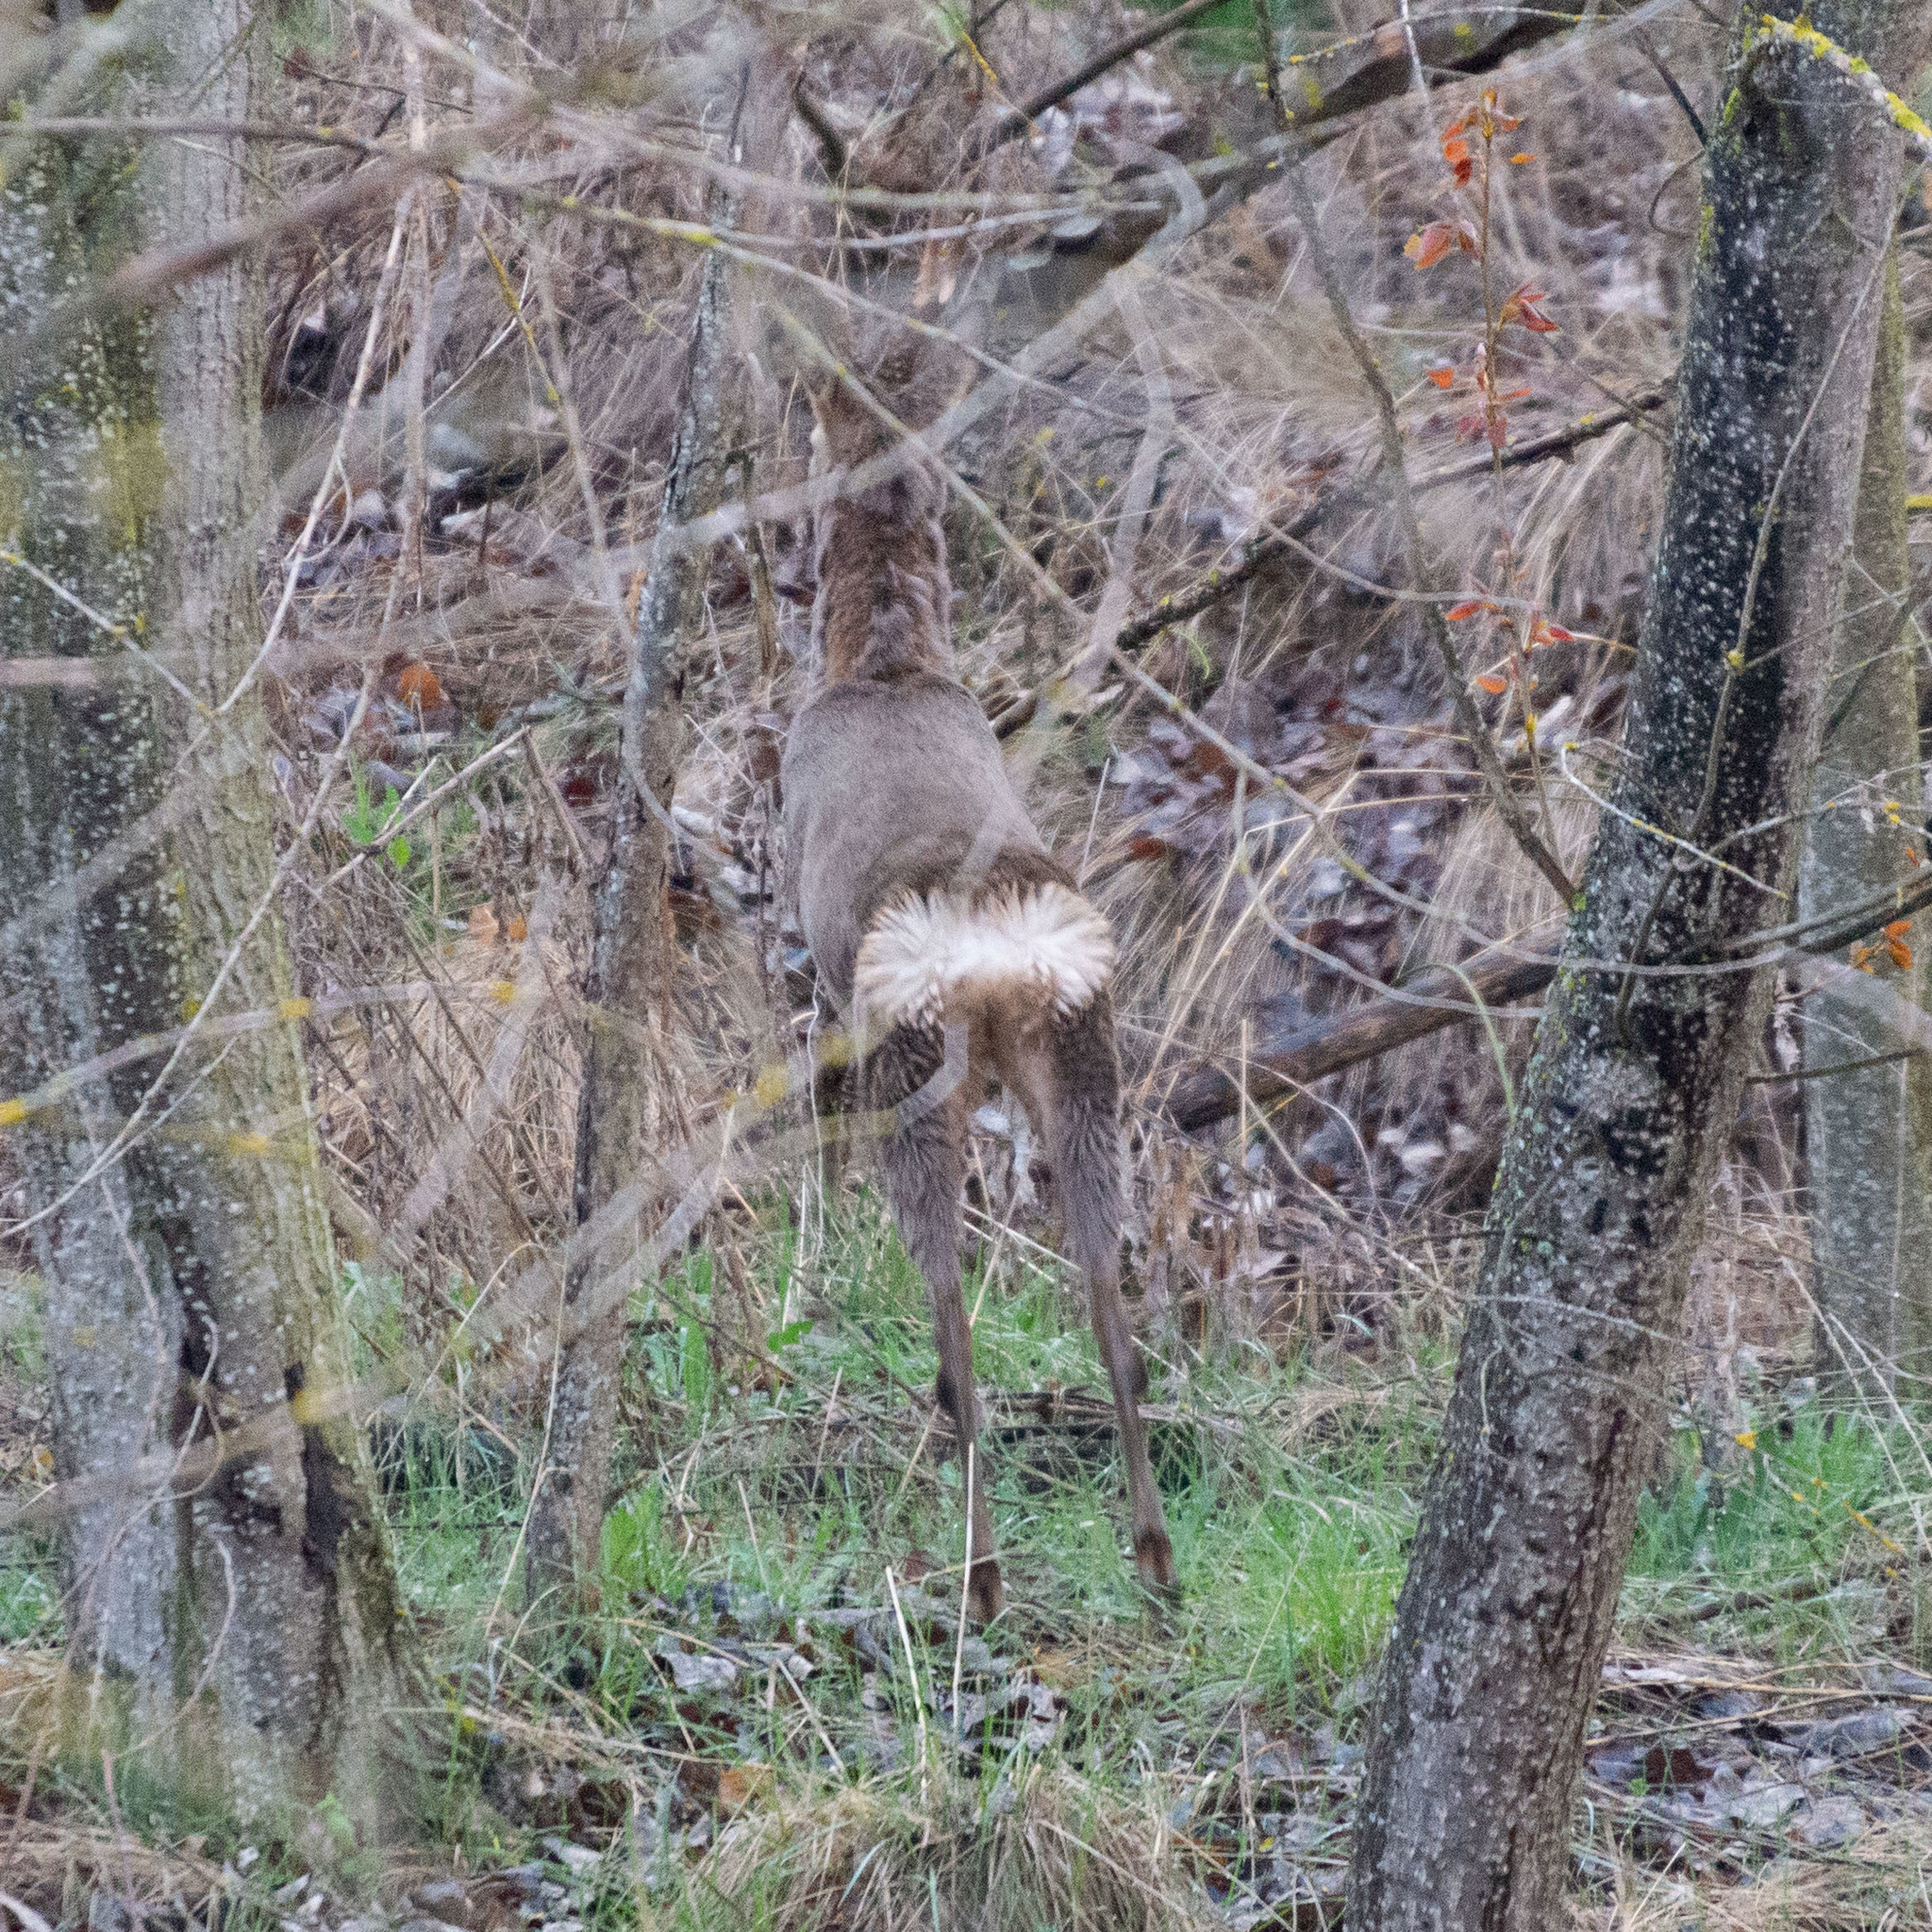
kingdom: Animalia
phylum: Chordata
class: Mammalia
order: Artiodactyla
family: Cervidae
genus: Capreolus
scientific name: Capreolus capreolus
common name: Western roe deer
